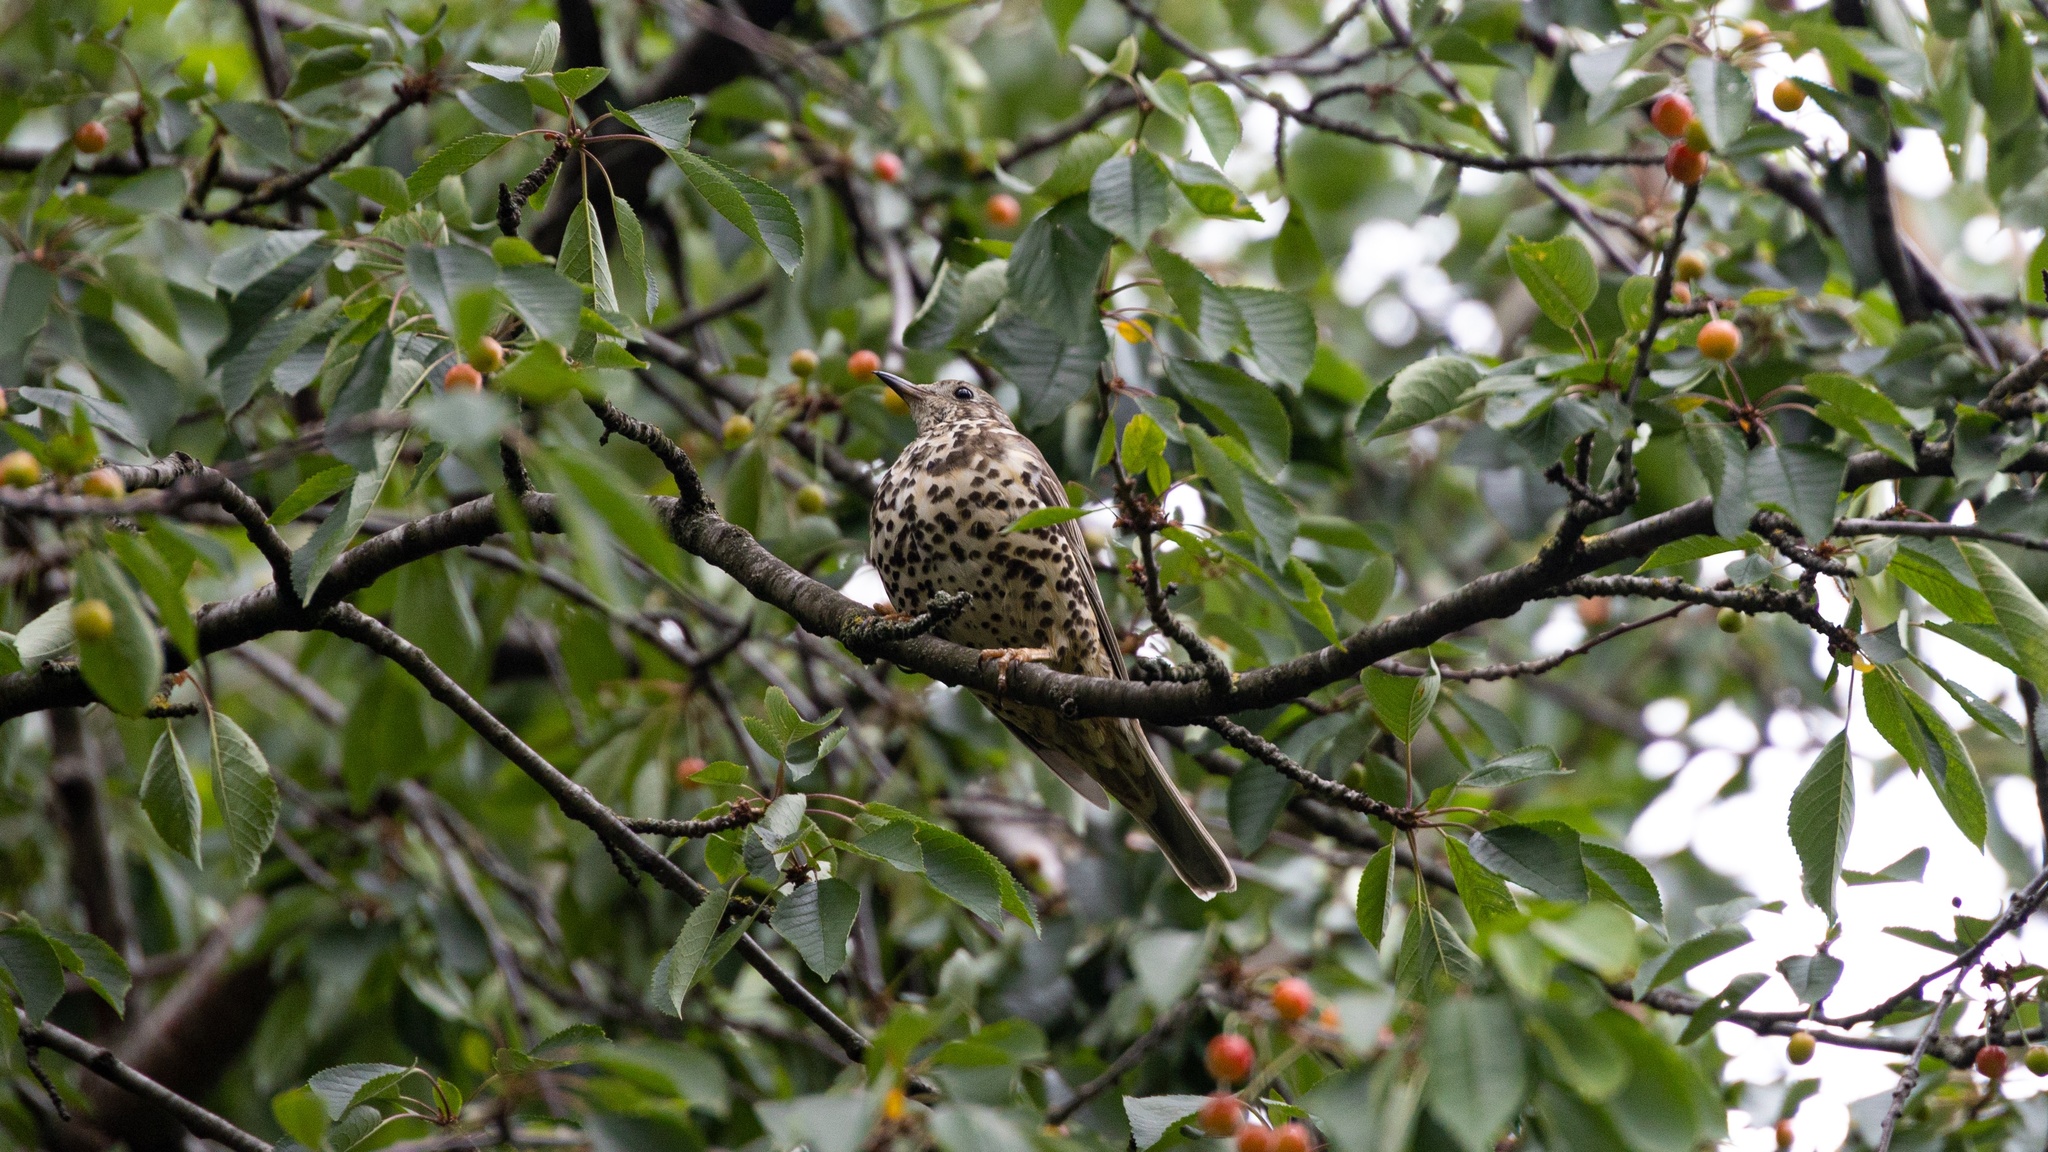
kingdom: Animalia
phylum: Chordata
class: Aves
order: Passeriformes
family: Turdidae
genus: Turdus
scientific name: Turdus viscivorus
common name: Mistle thrush
